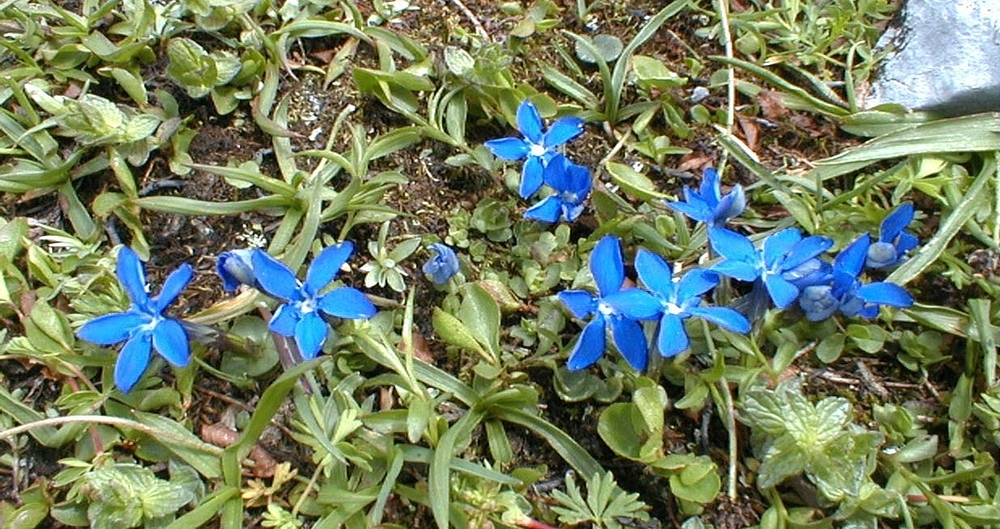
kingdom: Plantae
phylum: Tracheophyta
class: Magnoliopsida
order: Gentianales
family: Gentianaceae
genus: Gentiana
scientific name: Gentiana brachyphylla
